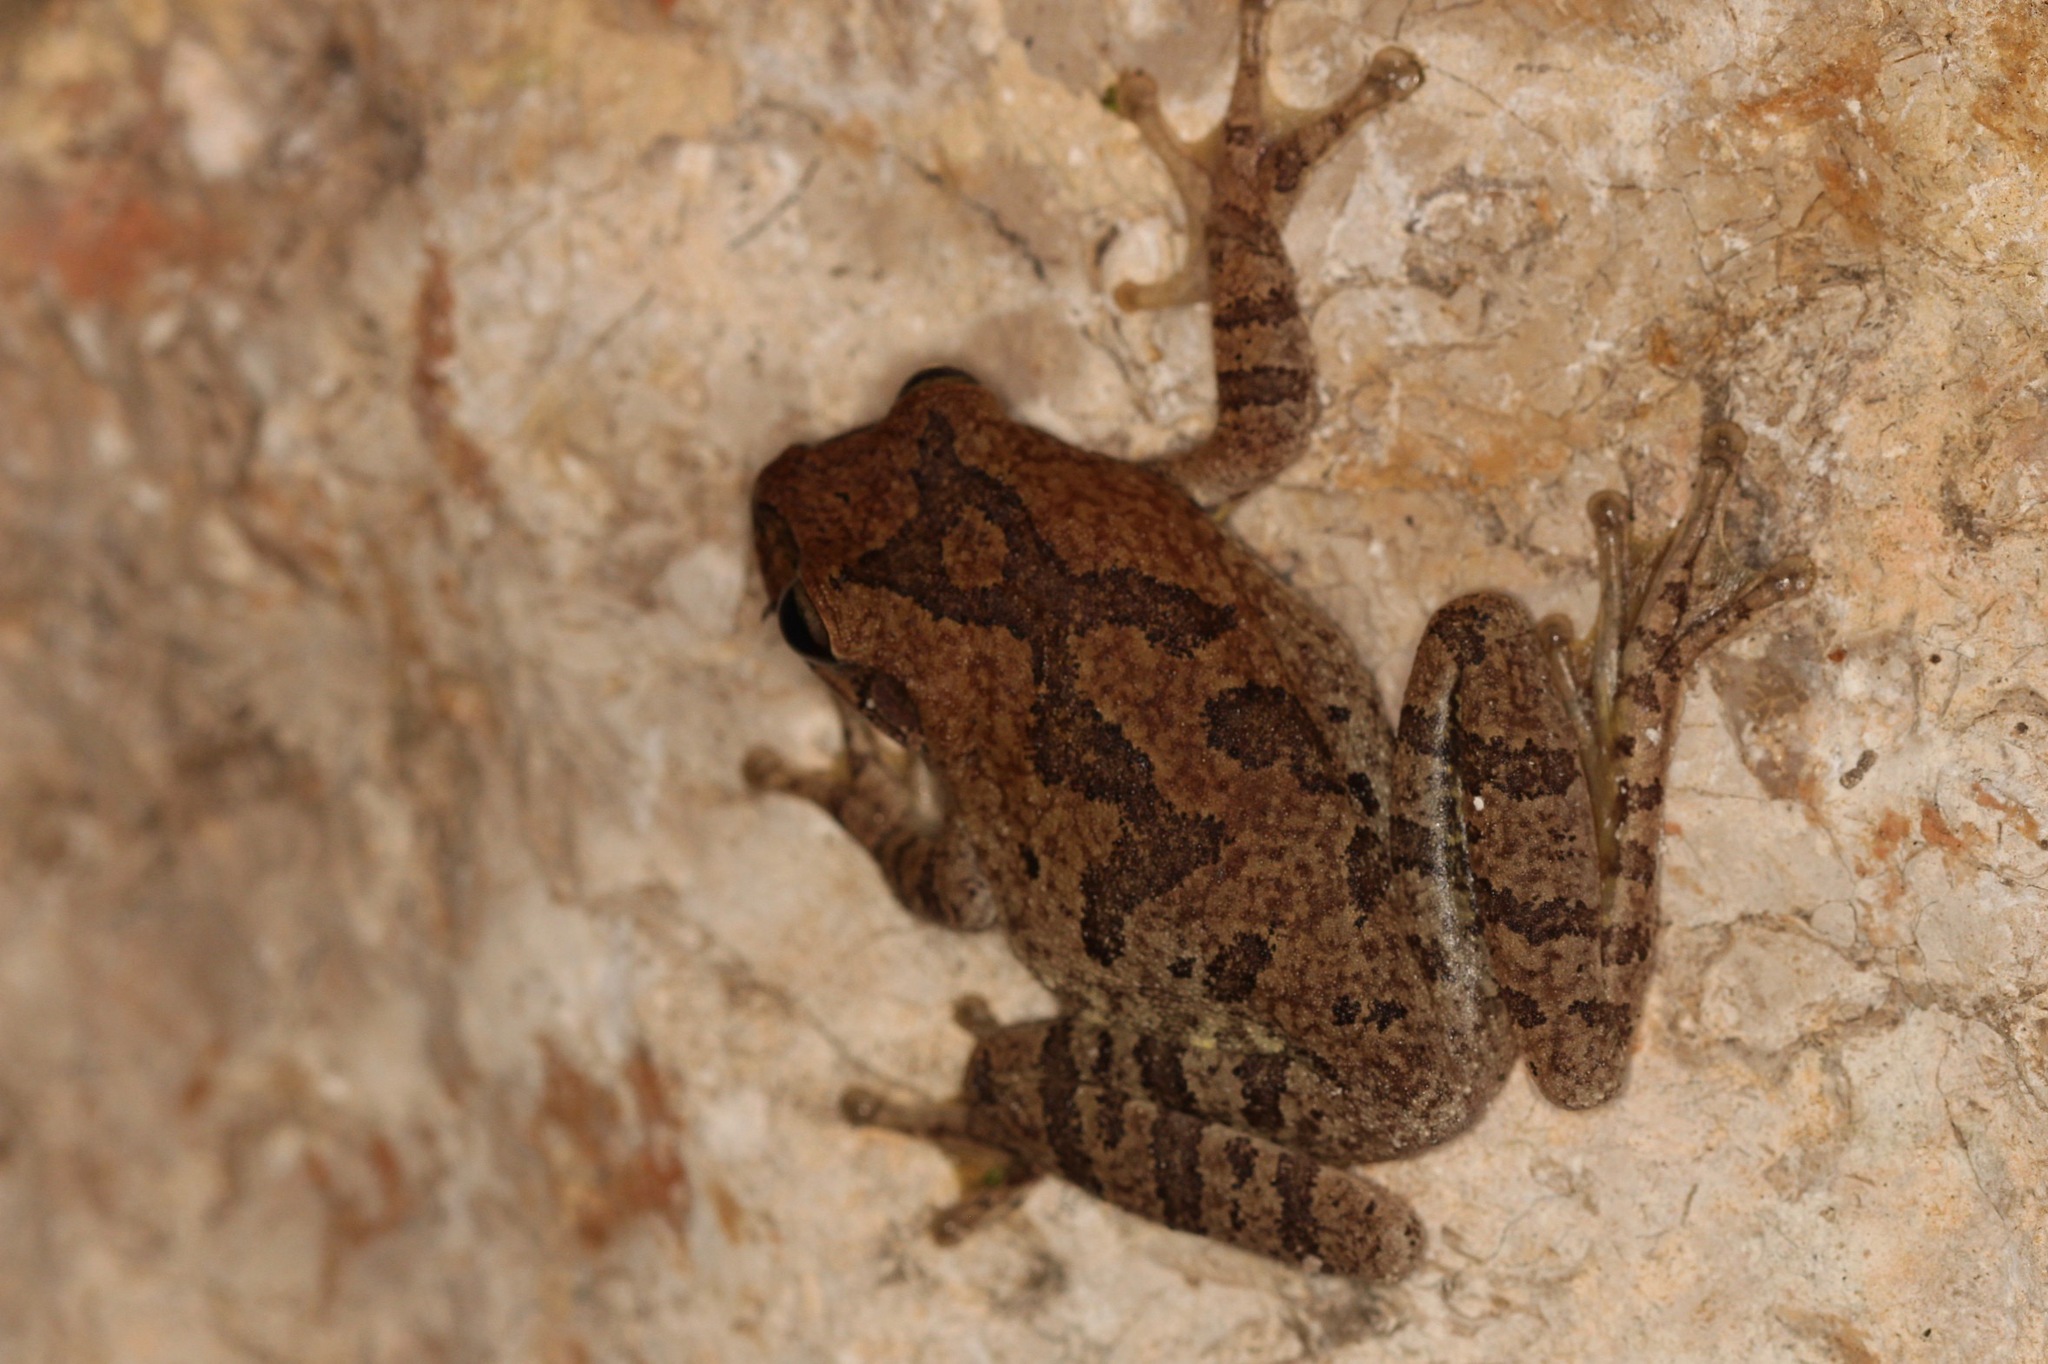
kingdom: Animalia
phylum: Chordata
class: Amphibia
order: Anura
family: Hylidae
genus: Smilisca
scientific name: Smilisca baudinii
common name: Mexican smilisca
